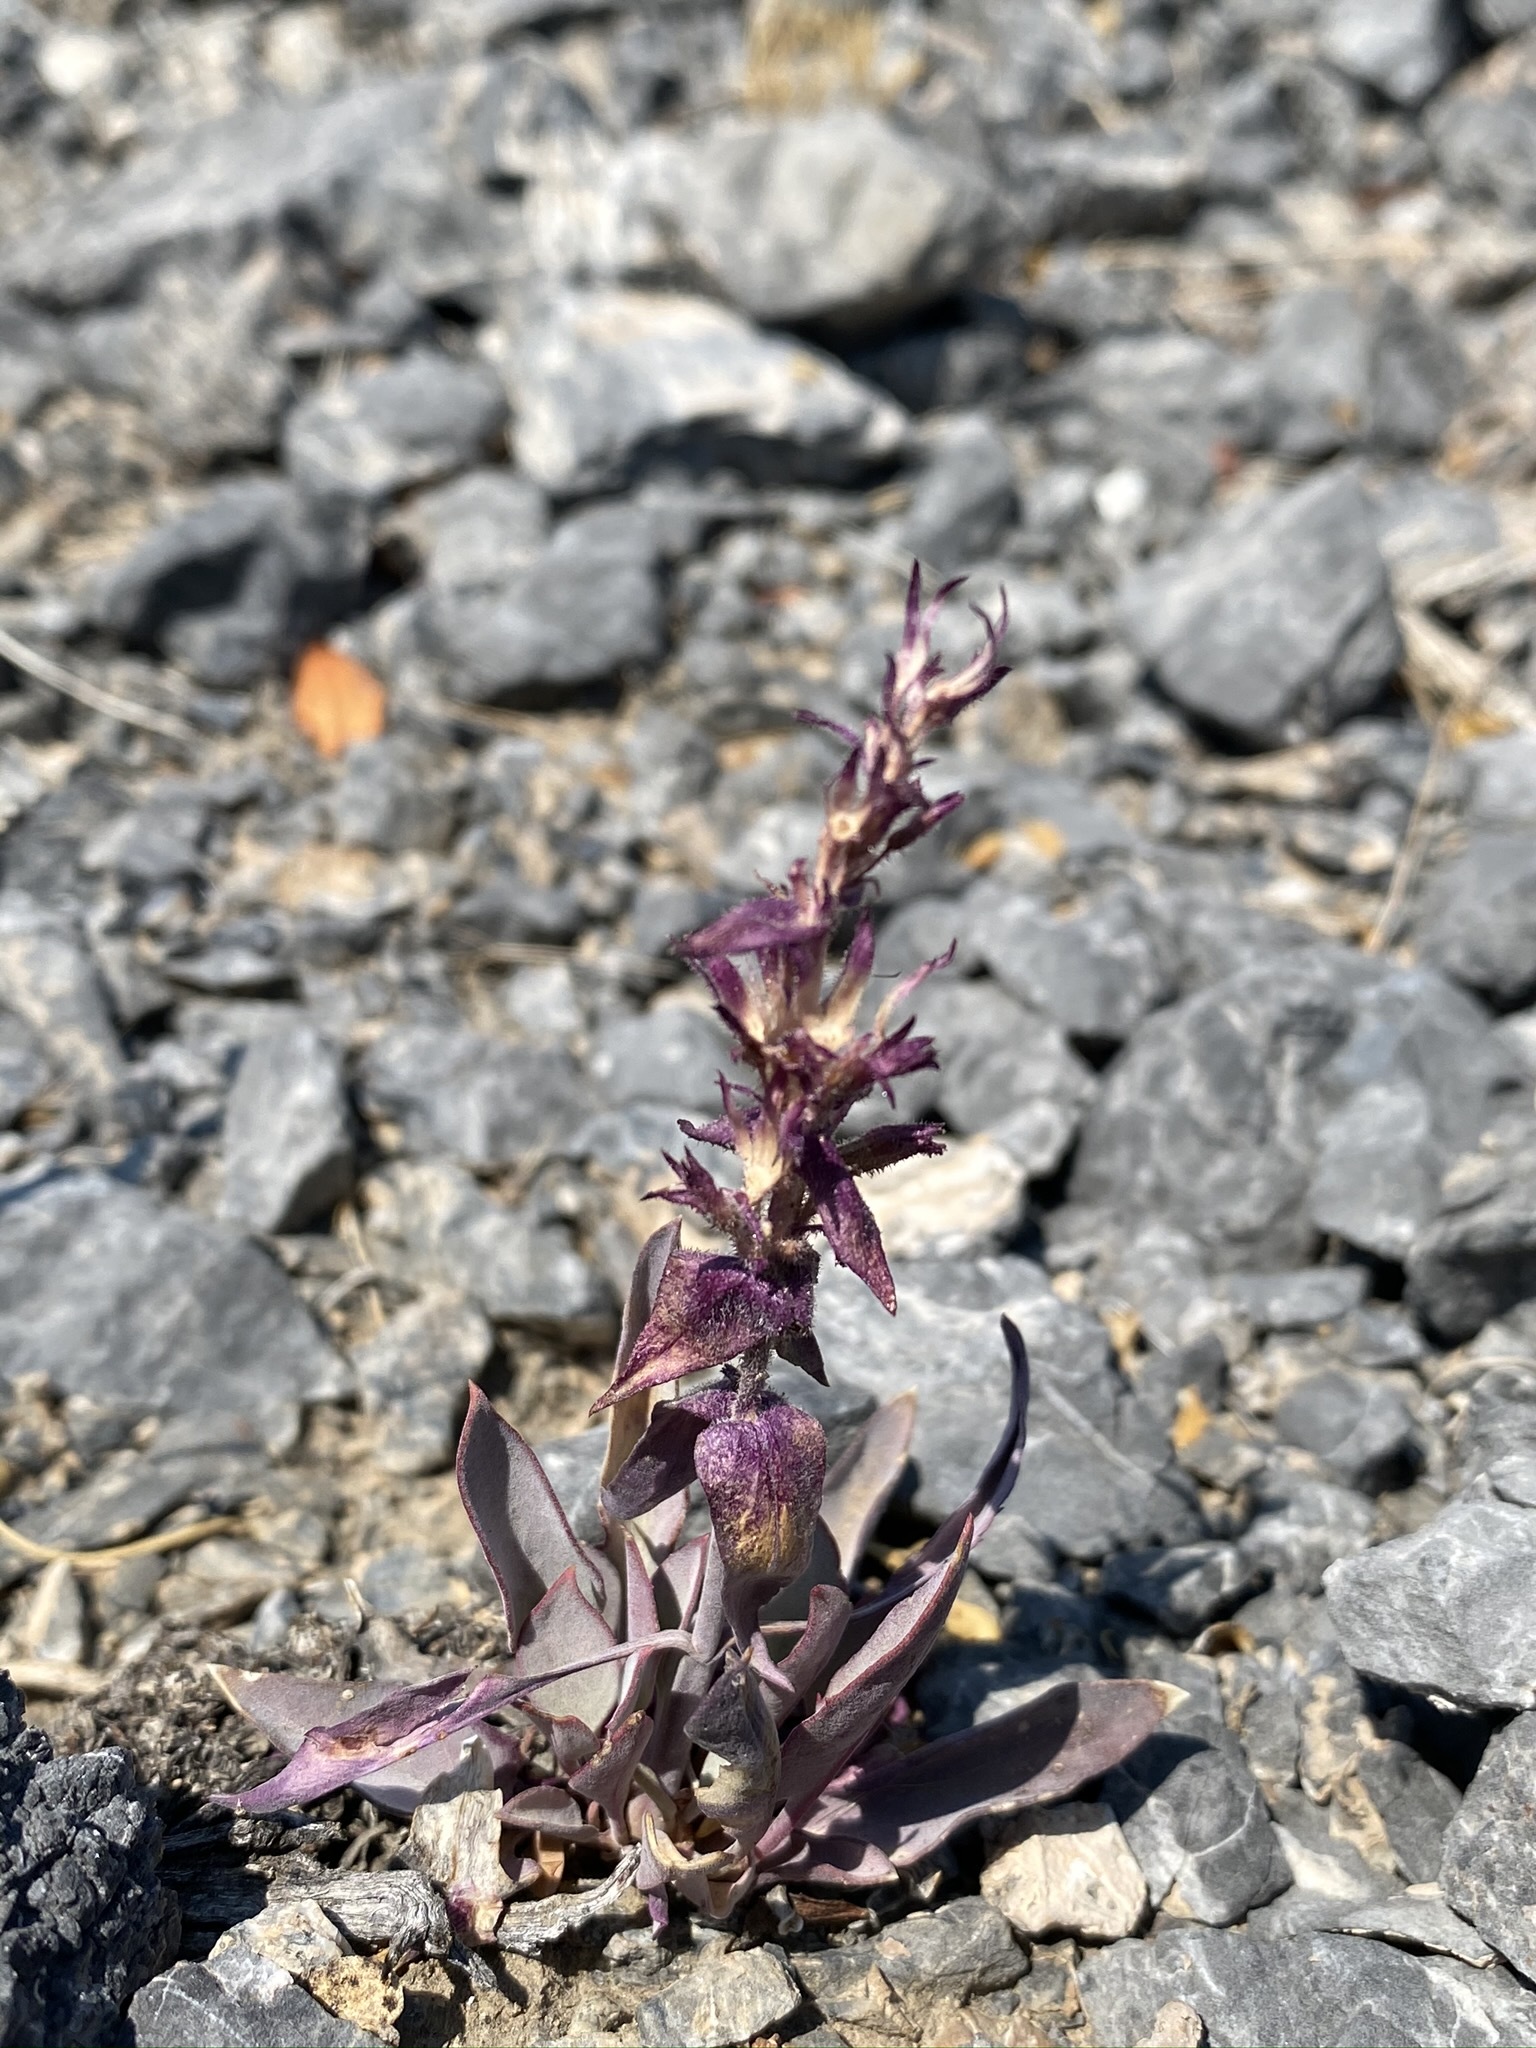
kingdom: Plantae
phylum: Tracheophyta
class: Magnoliopsida
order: Lamiales
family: Plantaginaceae
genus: Penstemon
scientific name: Penstemon calcareus
